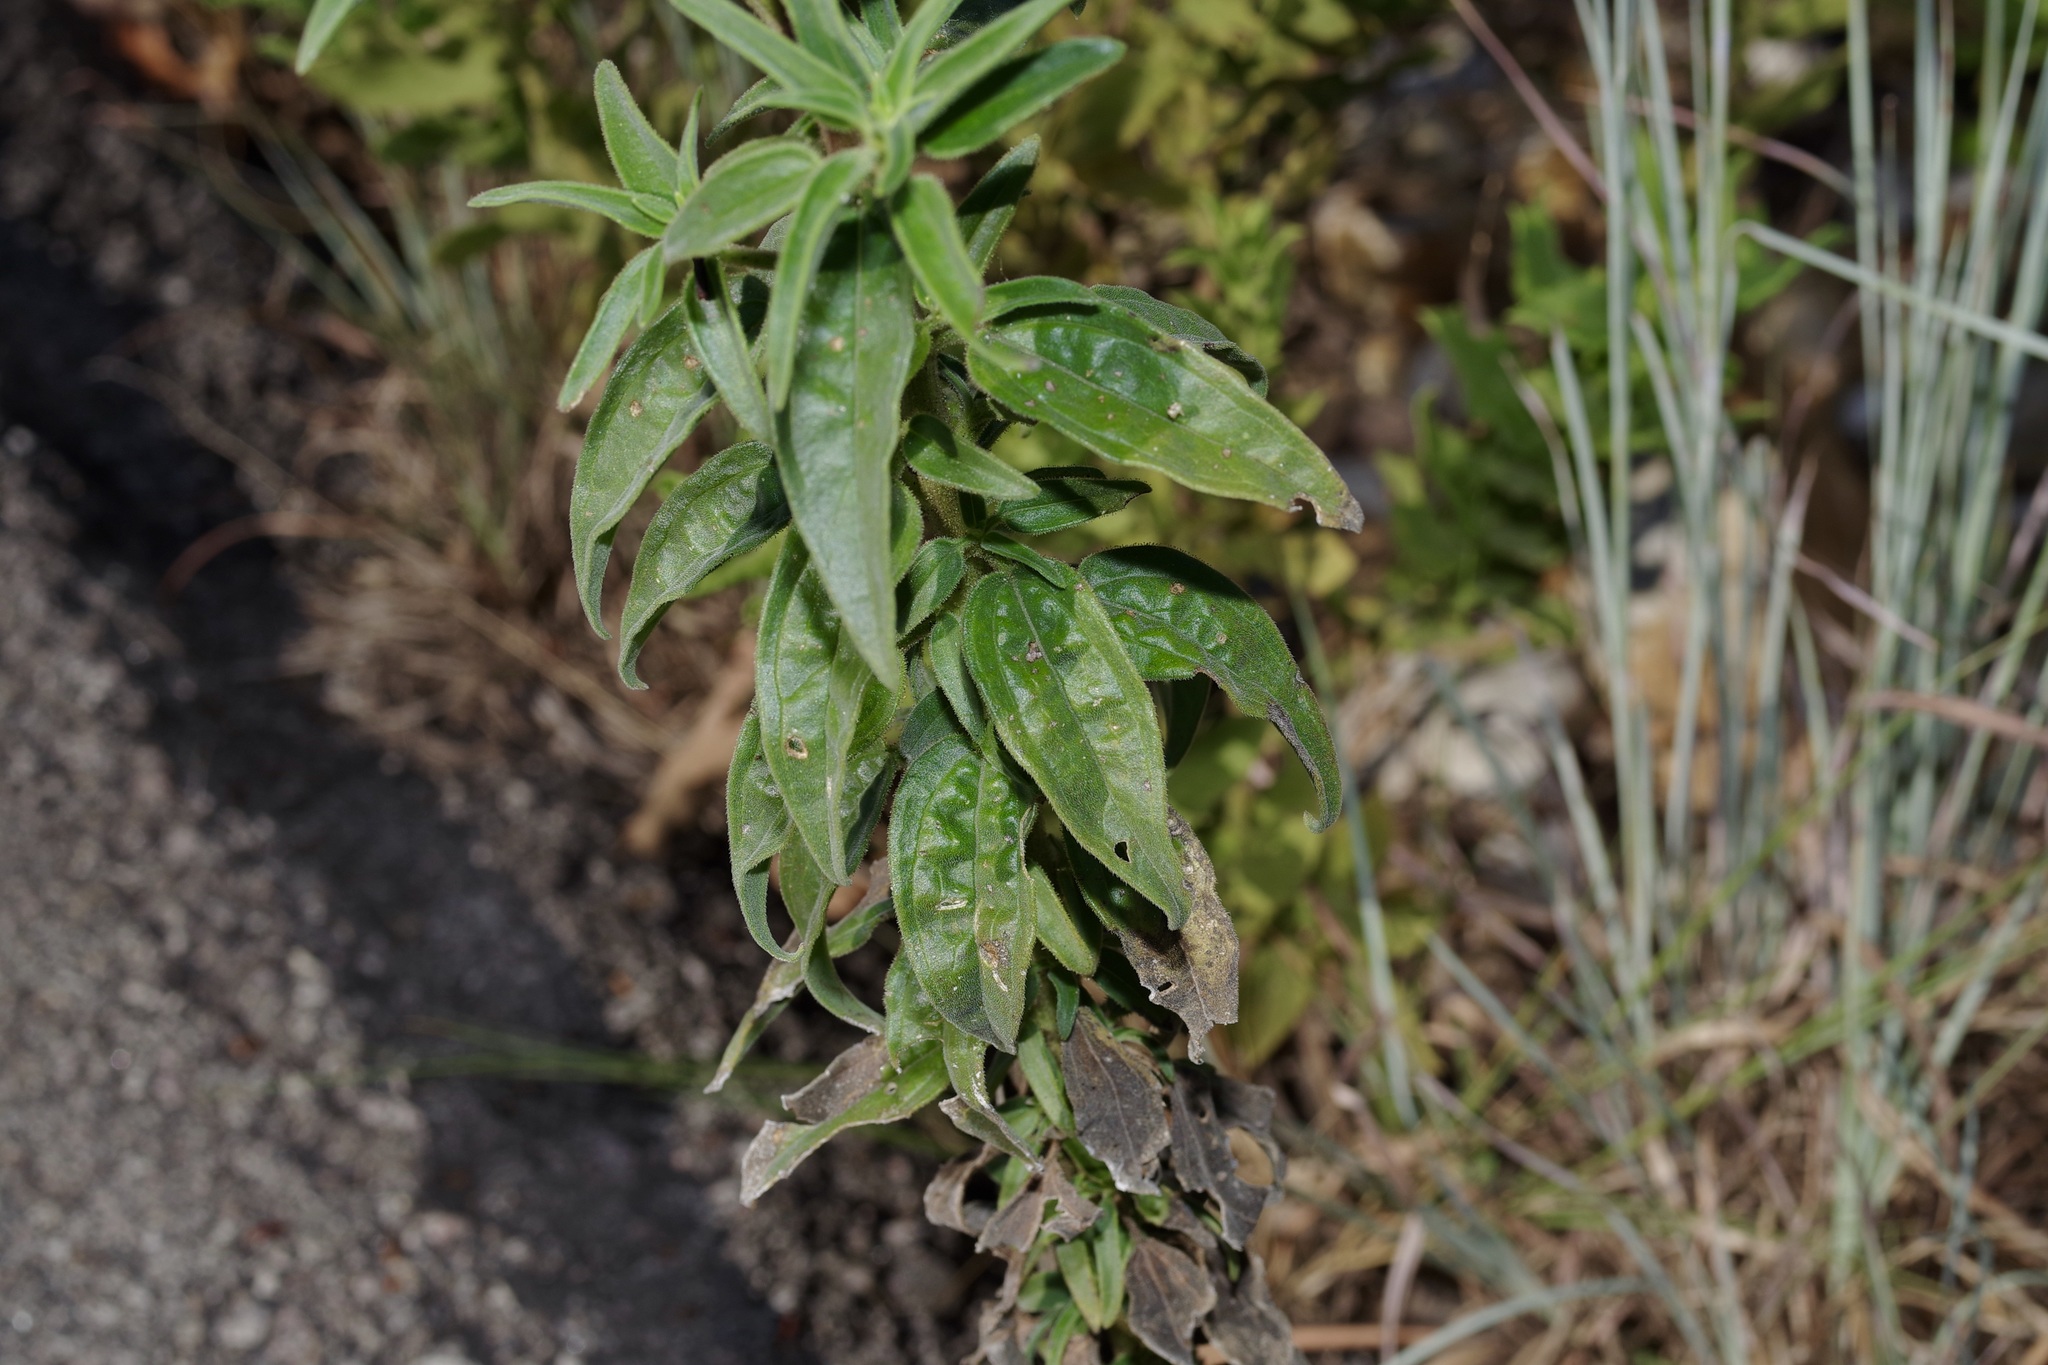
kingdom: Plantae
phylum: Tracheophyta
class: Magnoliopsida
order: Asterales
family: Asteraceae
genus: Palafoxia
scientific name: Palafoxia hookeriana
